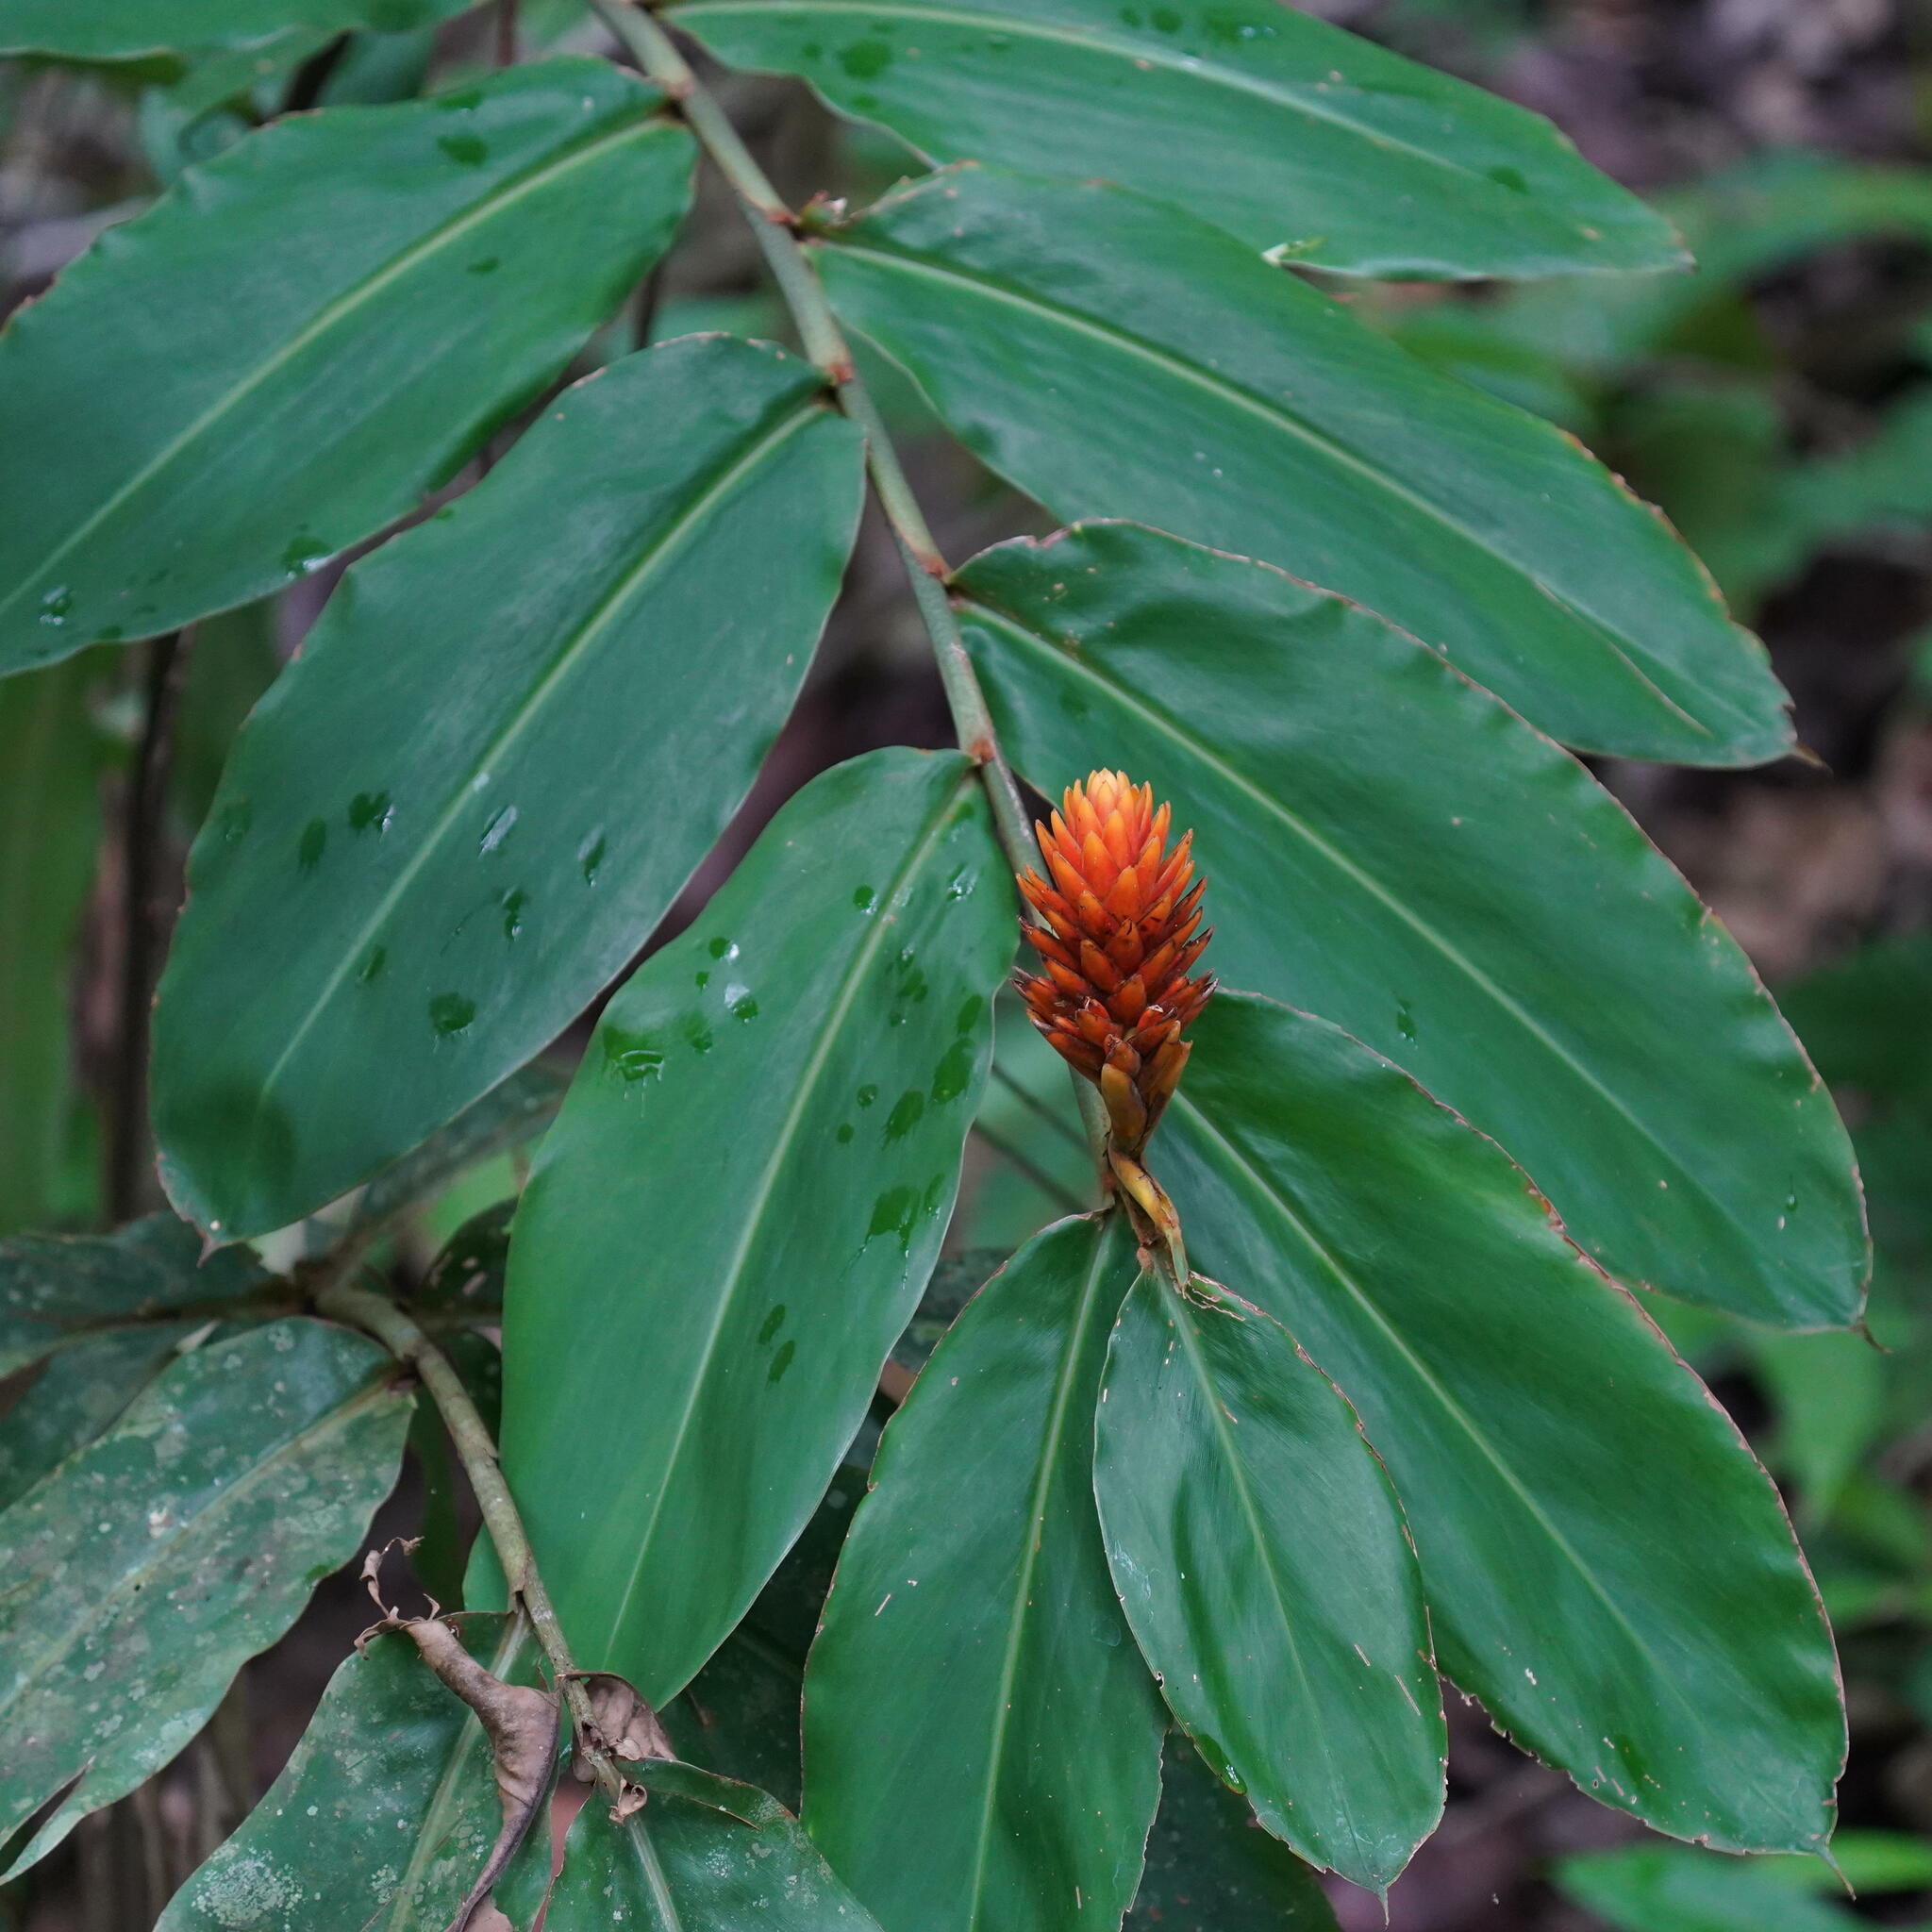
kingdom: Plantae
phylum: Tracheophyta
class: Liliopsida
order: Zingiberales
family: Zingiberaceae
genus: Renealmia
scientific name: Renealmia cernua
